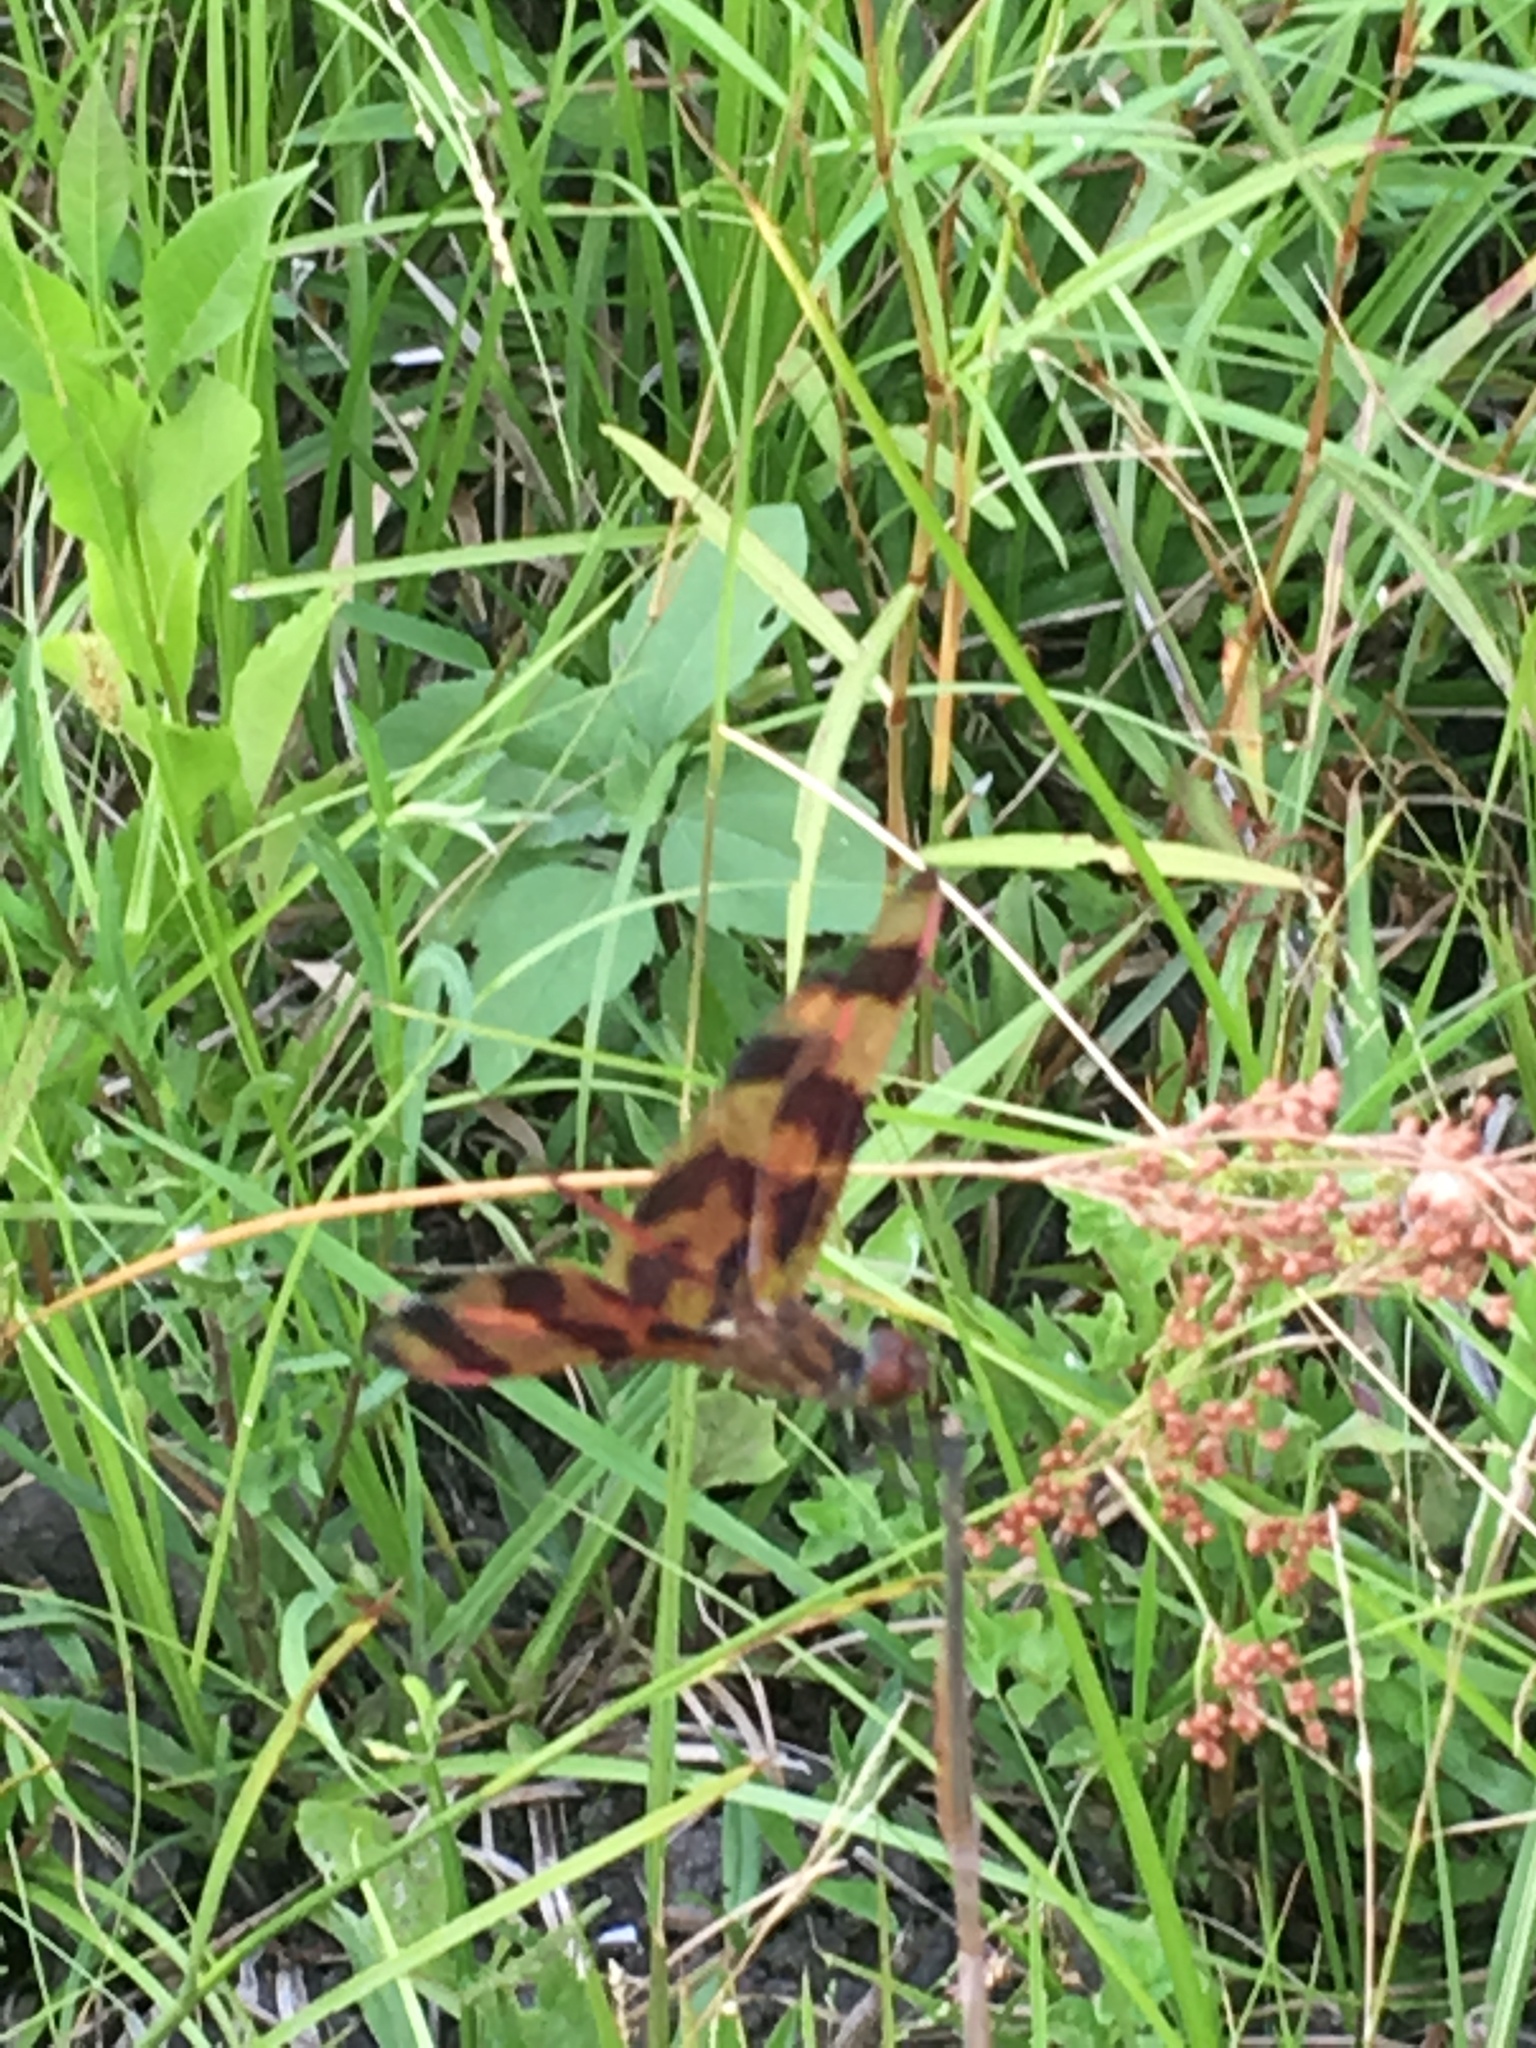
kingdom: Animalia
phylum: Arthropoda
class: Insecta
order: Odonata
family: Libellulidae
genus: Celithemis
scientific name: Celithemis eponina
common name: Halloween pennant
